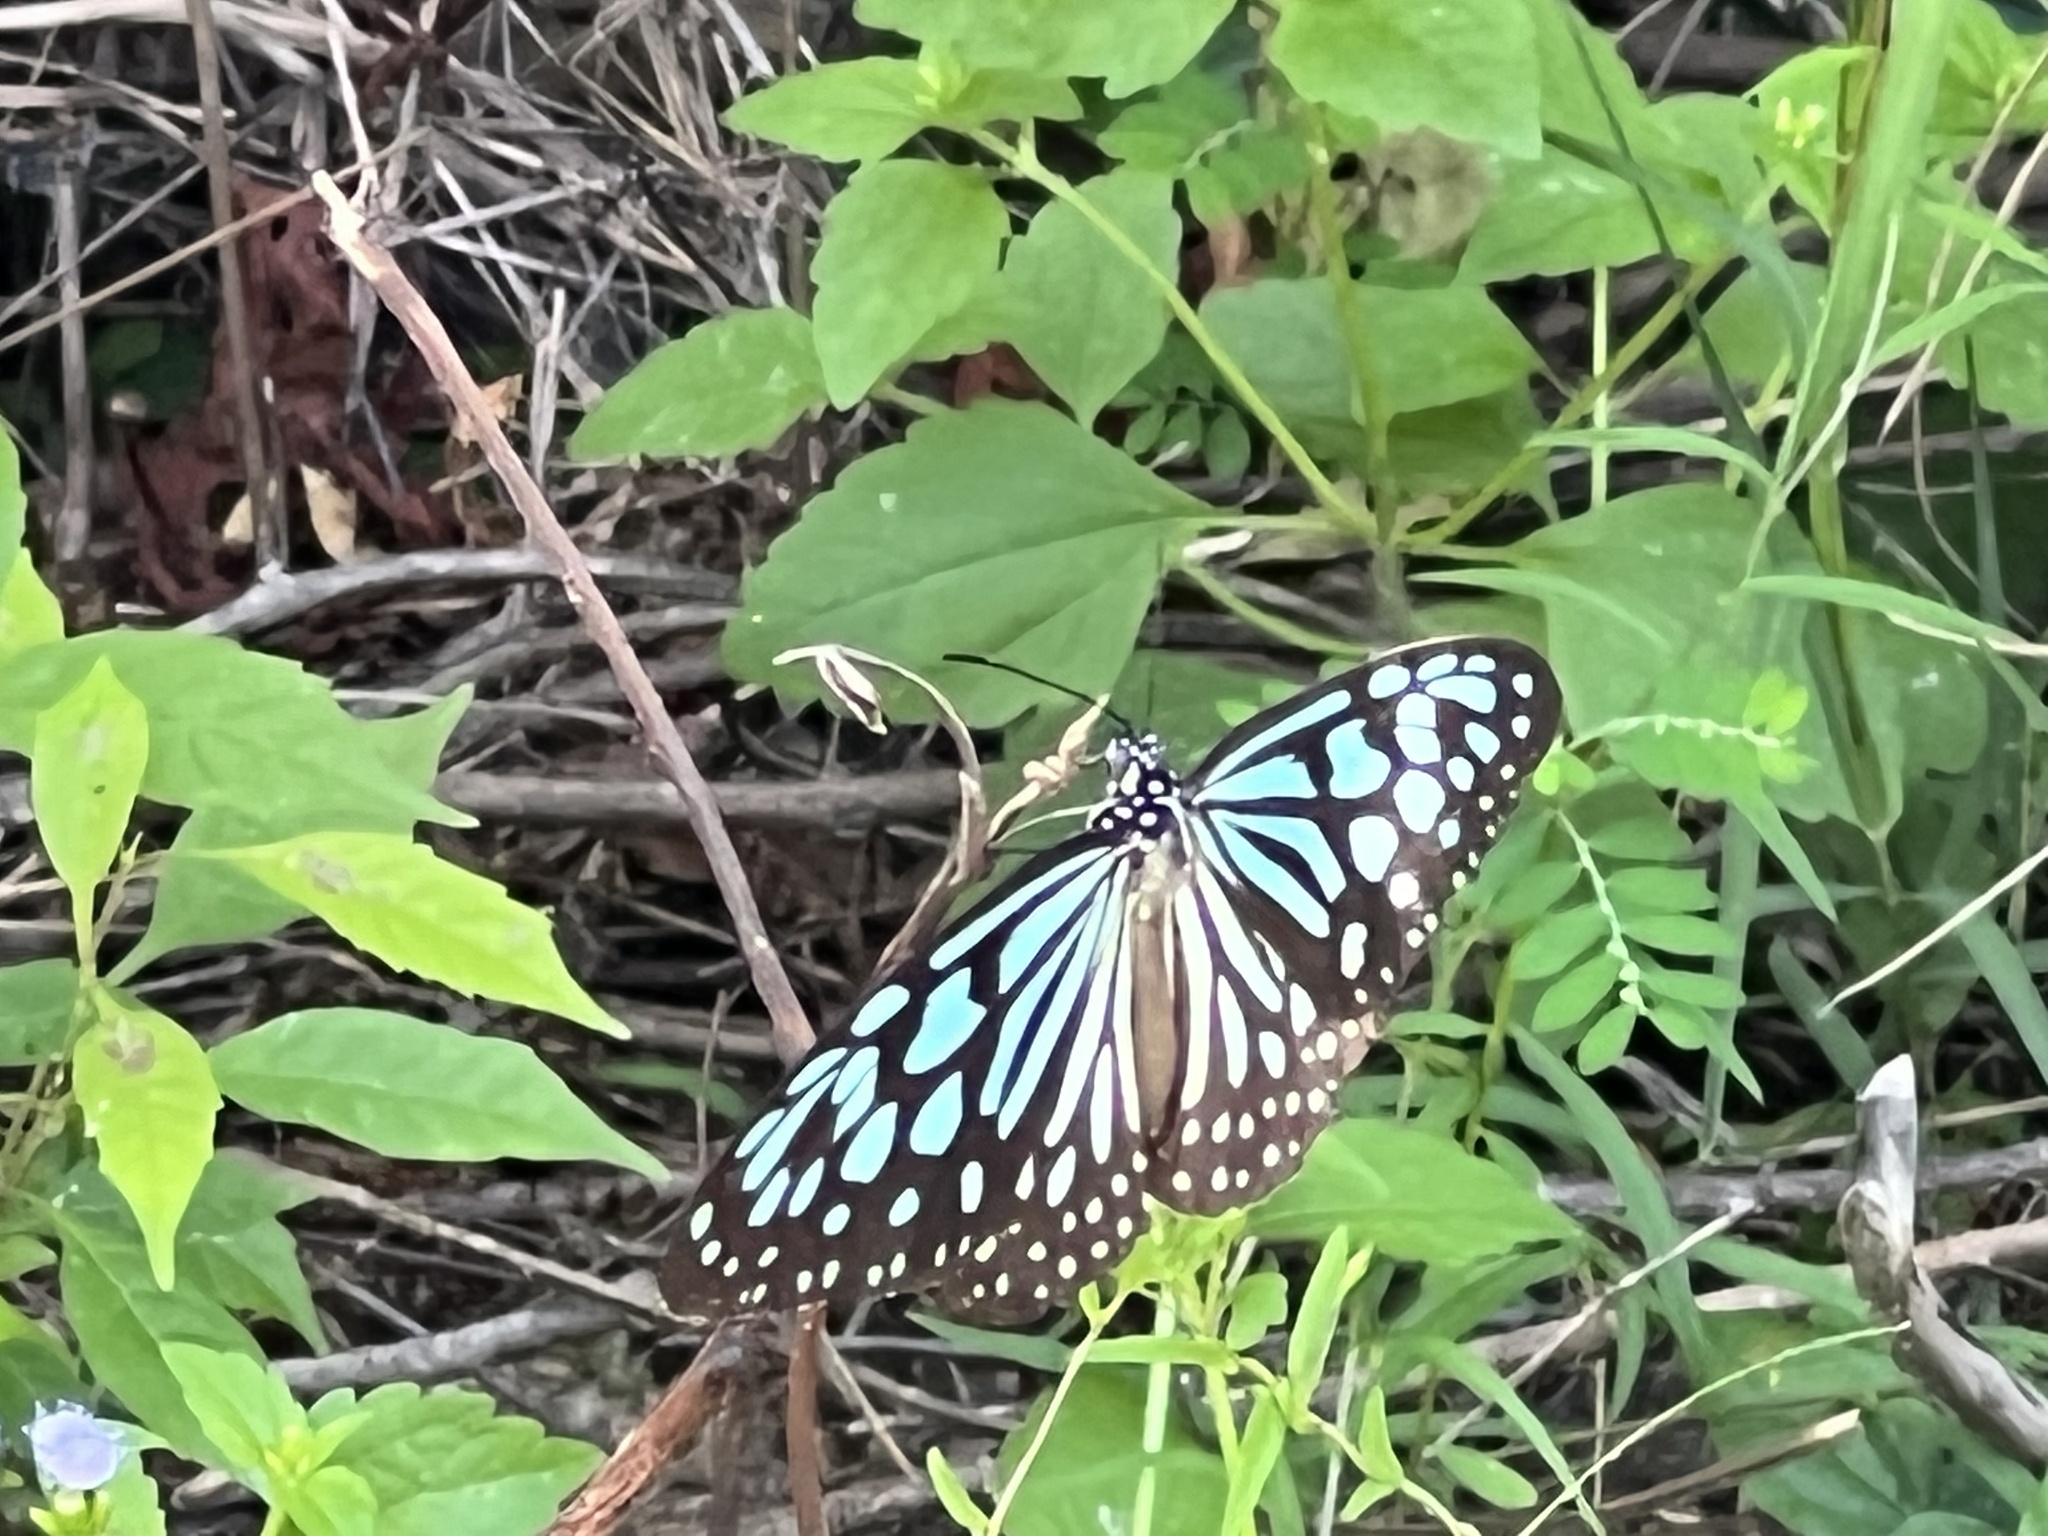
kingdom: Animalia
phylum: Arthropoda
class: Insecta
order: Lepidoptera
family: Nymphalidae
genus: Ideopsis
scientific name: Ideopsis similis
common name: Ceylon blue glassy tiger
